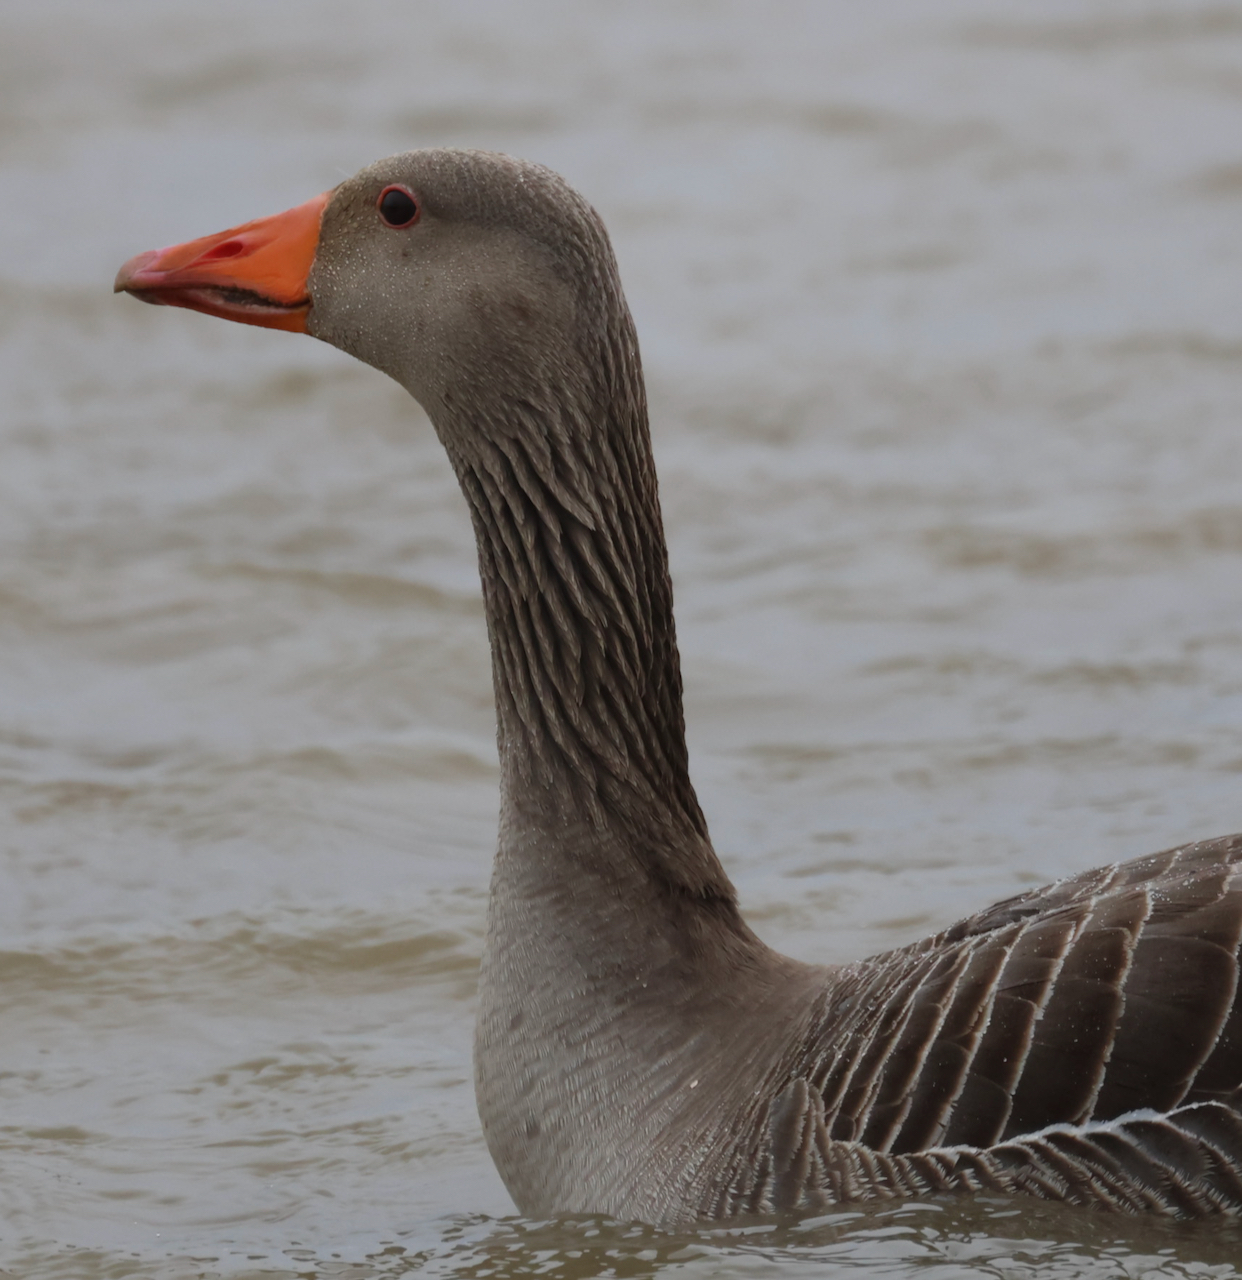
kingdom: Animalia
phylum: Chordata
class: Aves
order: Anseriformes
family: Anatidae
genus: Anser
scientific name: Anser anser
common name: Greylag goose
